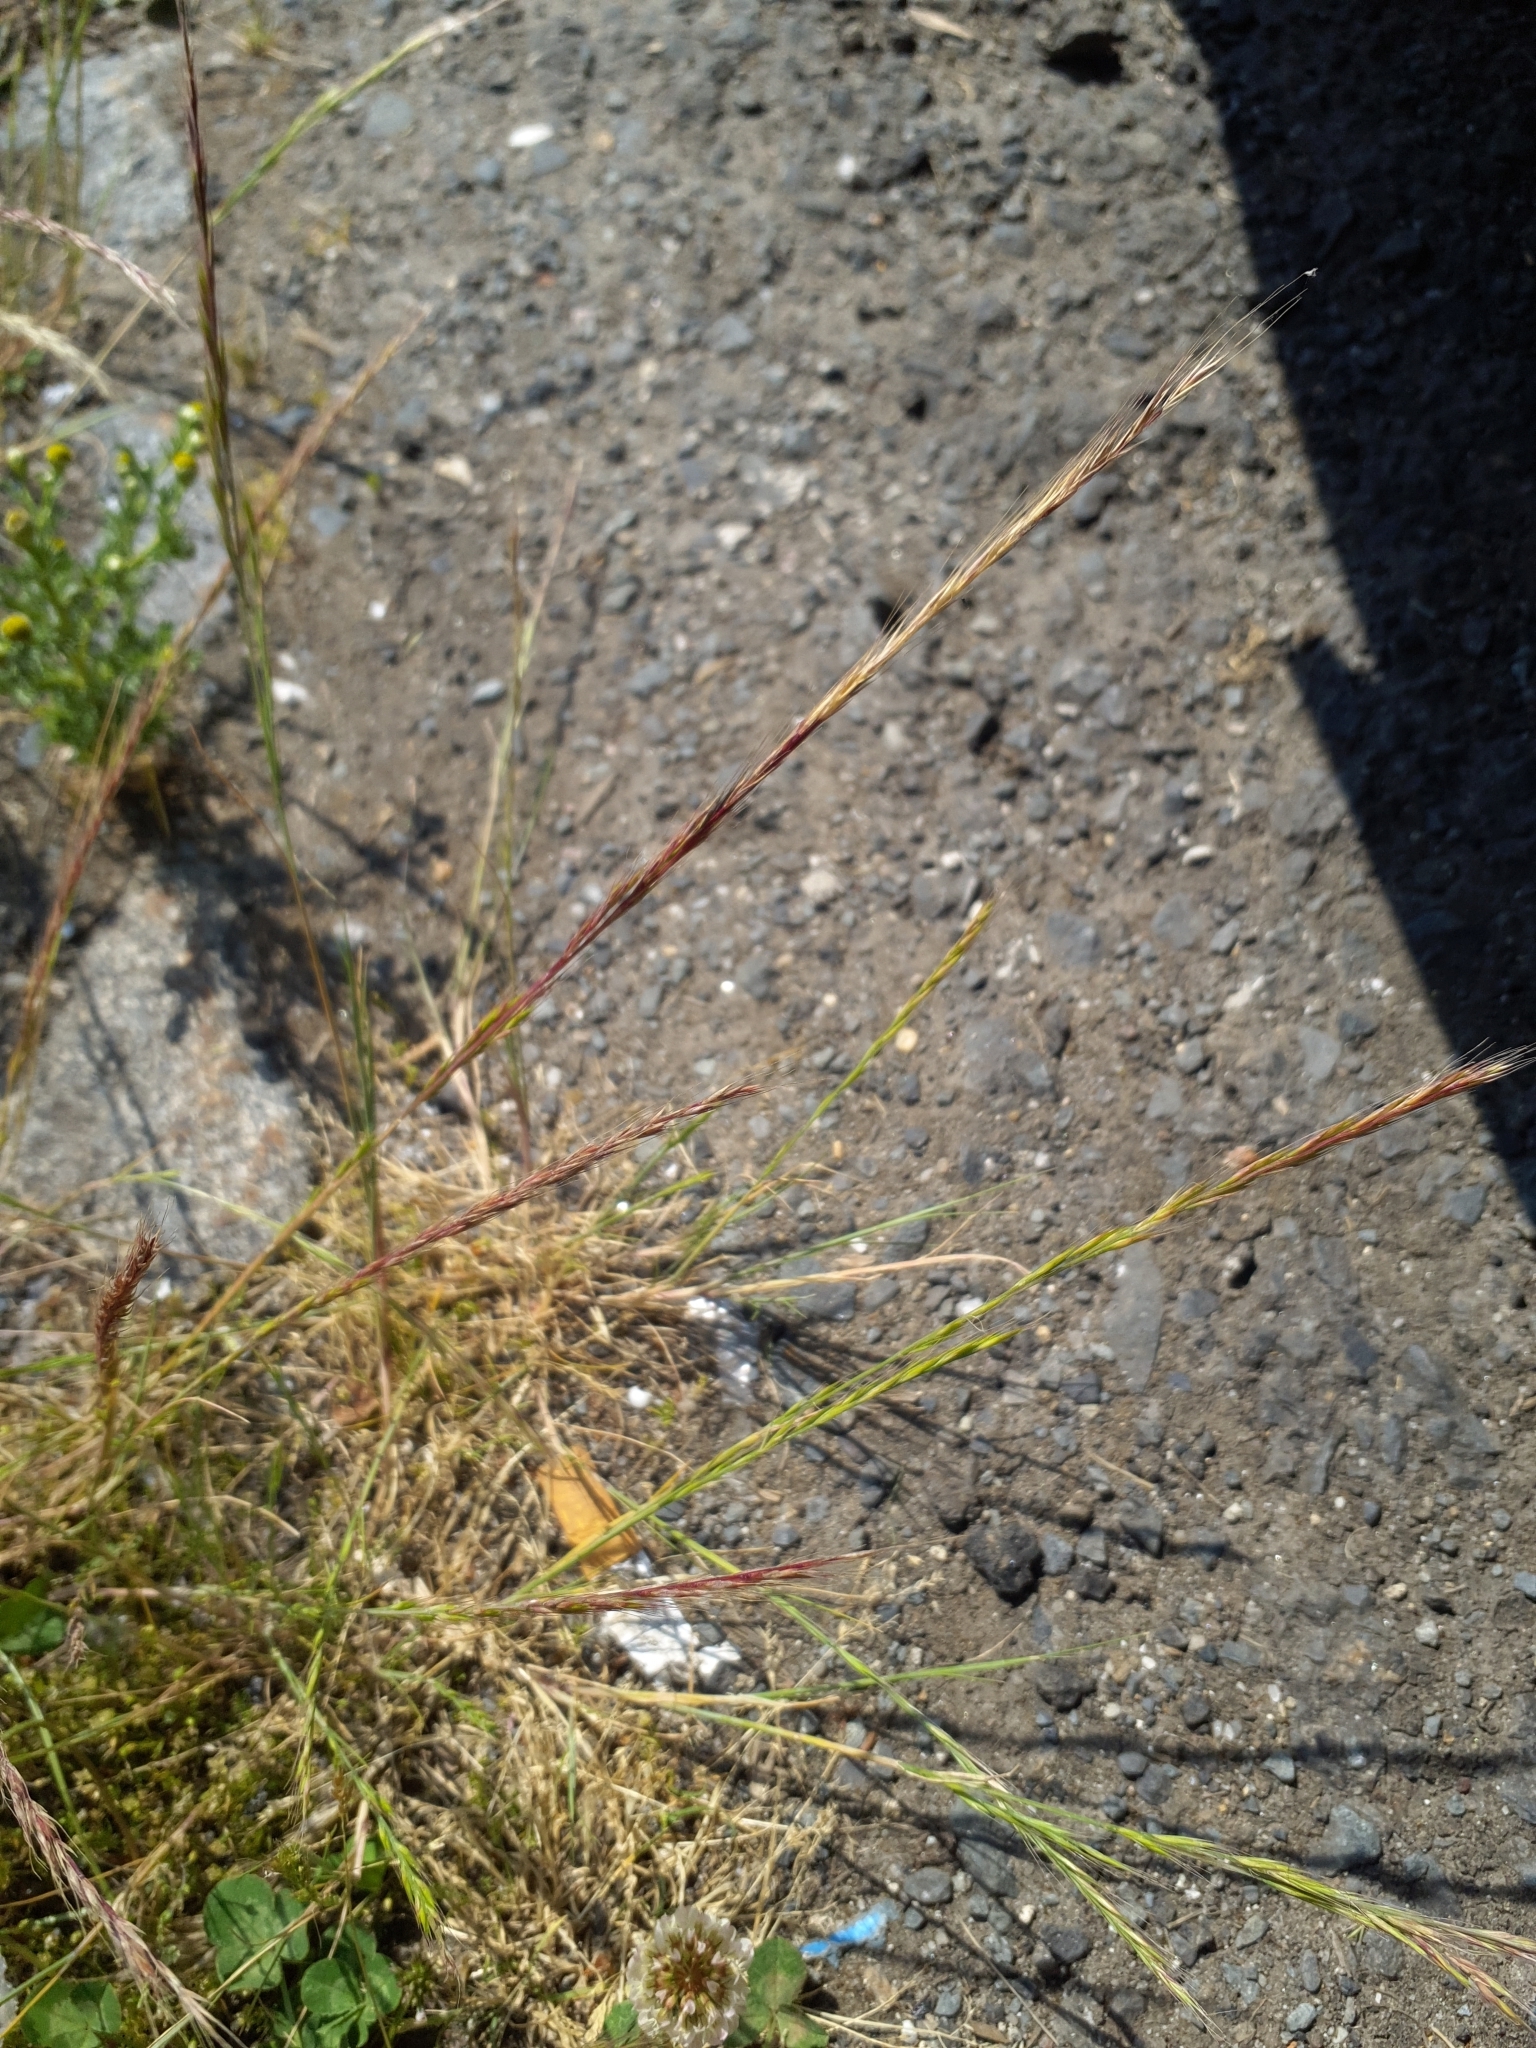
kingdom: Plantae
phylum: Tracheophyta
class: Liliopsida
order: Poales
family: Poaceae
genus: Festuca
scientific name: Festuca myuros
